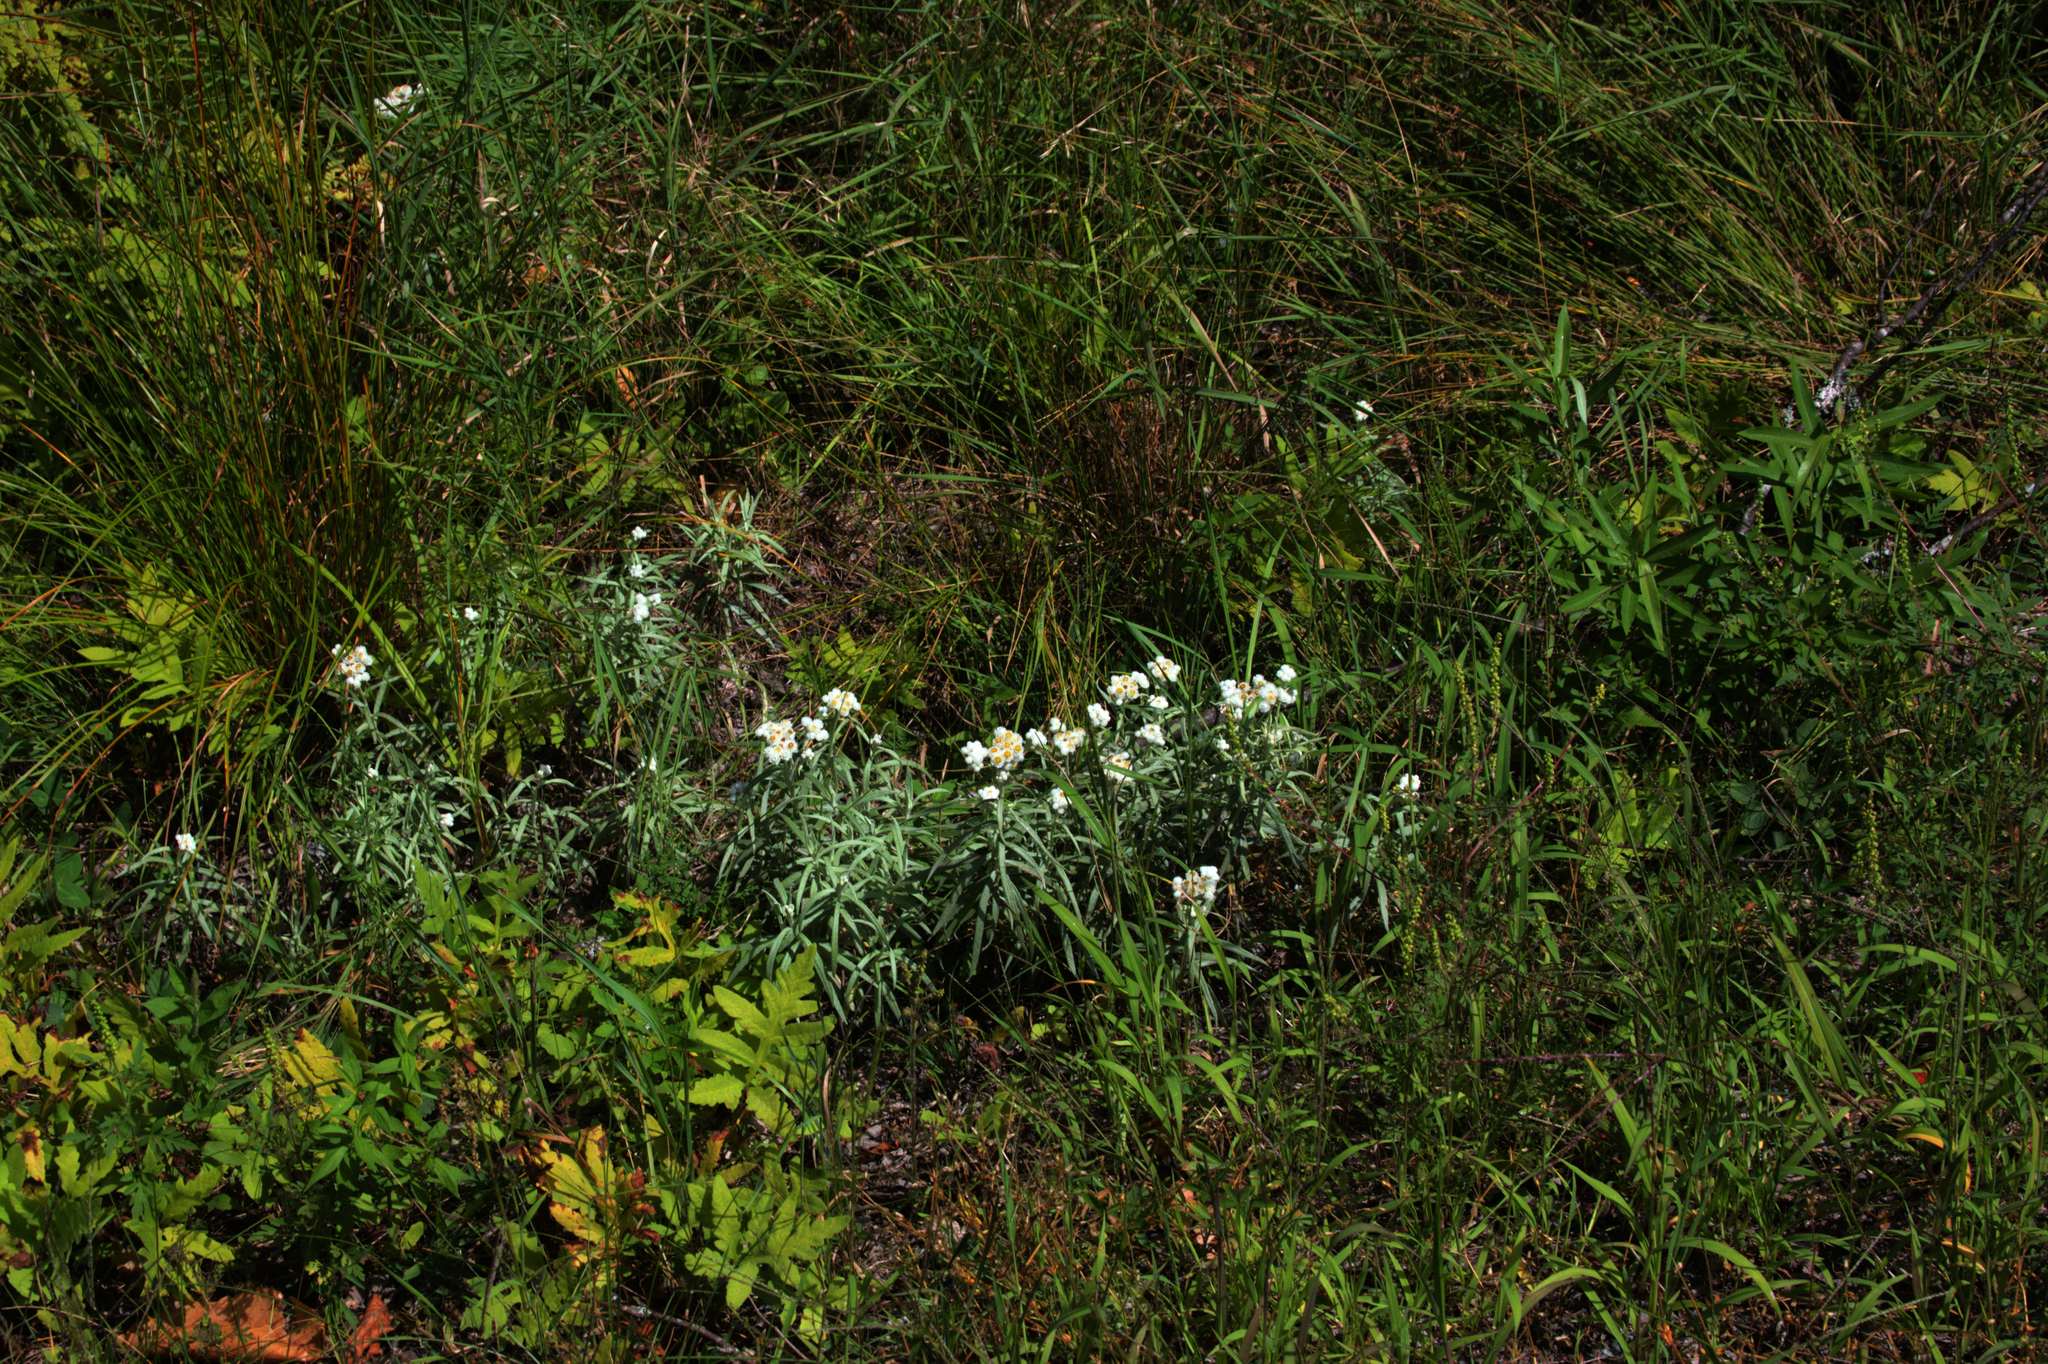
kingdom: Plantae
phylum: Tracheophyta
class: Magnoliopsida
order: Asterales
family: Asteraceae
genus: Anaphalis
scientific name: Anaphalis margaritacea
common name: Pearly everlasting
